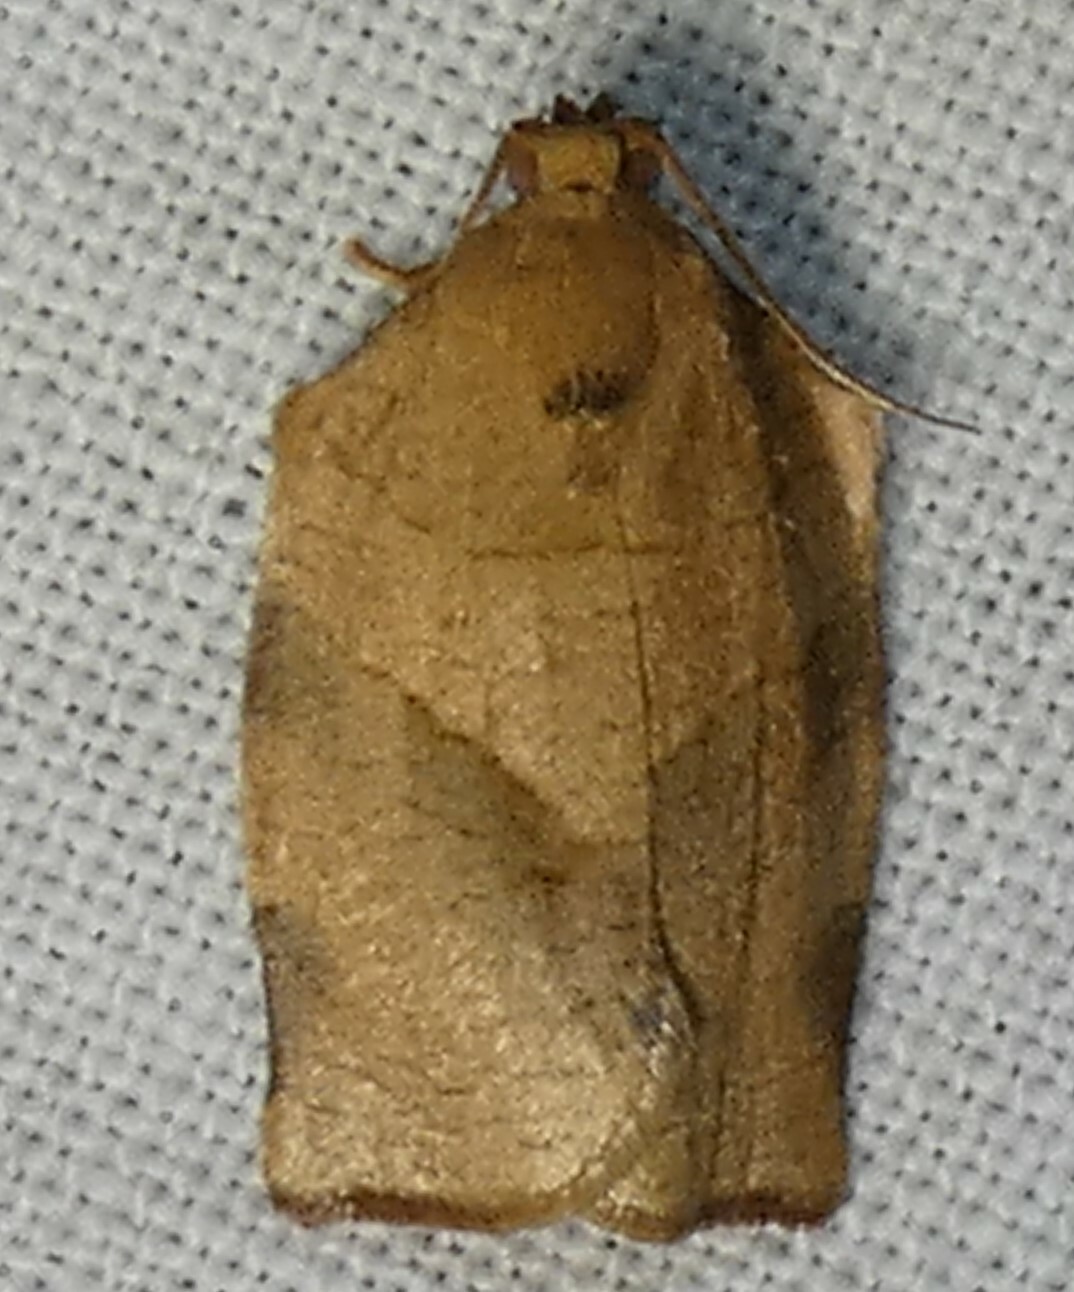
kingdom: Animalia
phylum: Arthropoda
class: Insecta
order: Lepidoptera
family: Tortricidae
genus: Choristoneura
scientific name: Choristoneura rosaceana
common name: Oblique-banded leafroller moth
